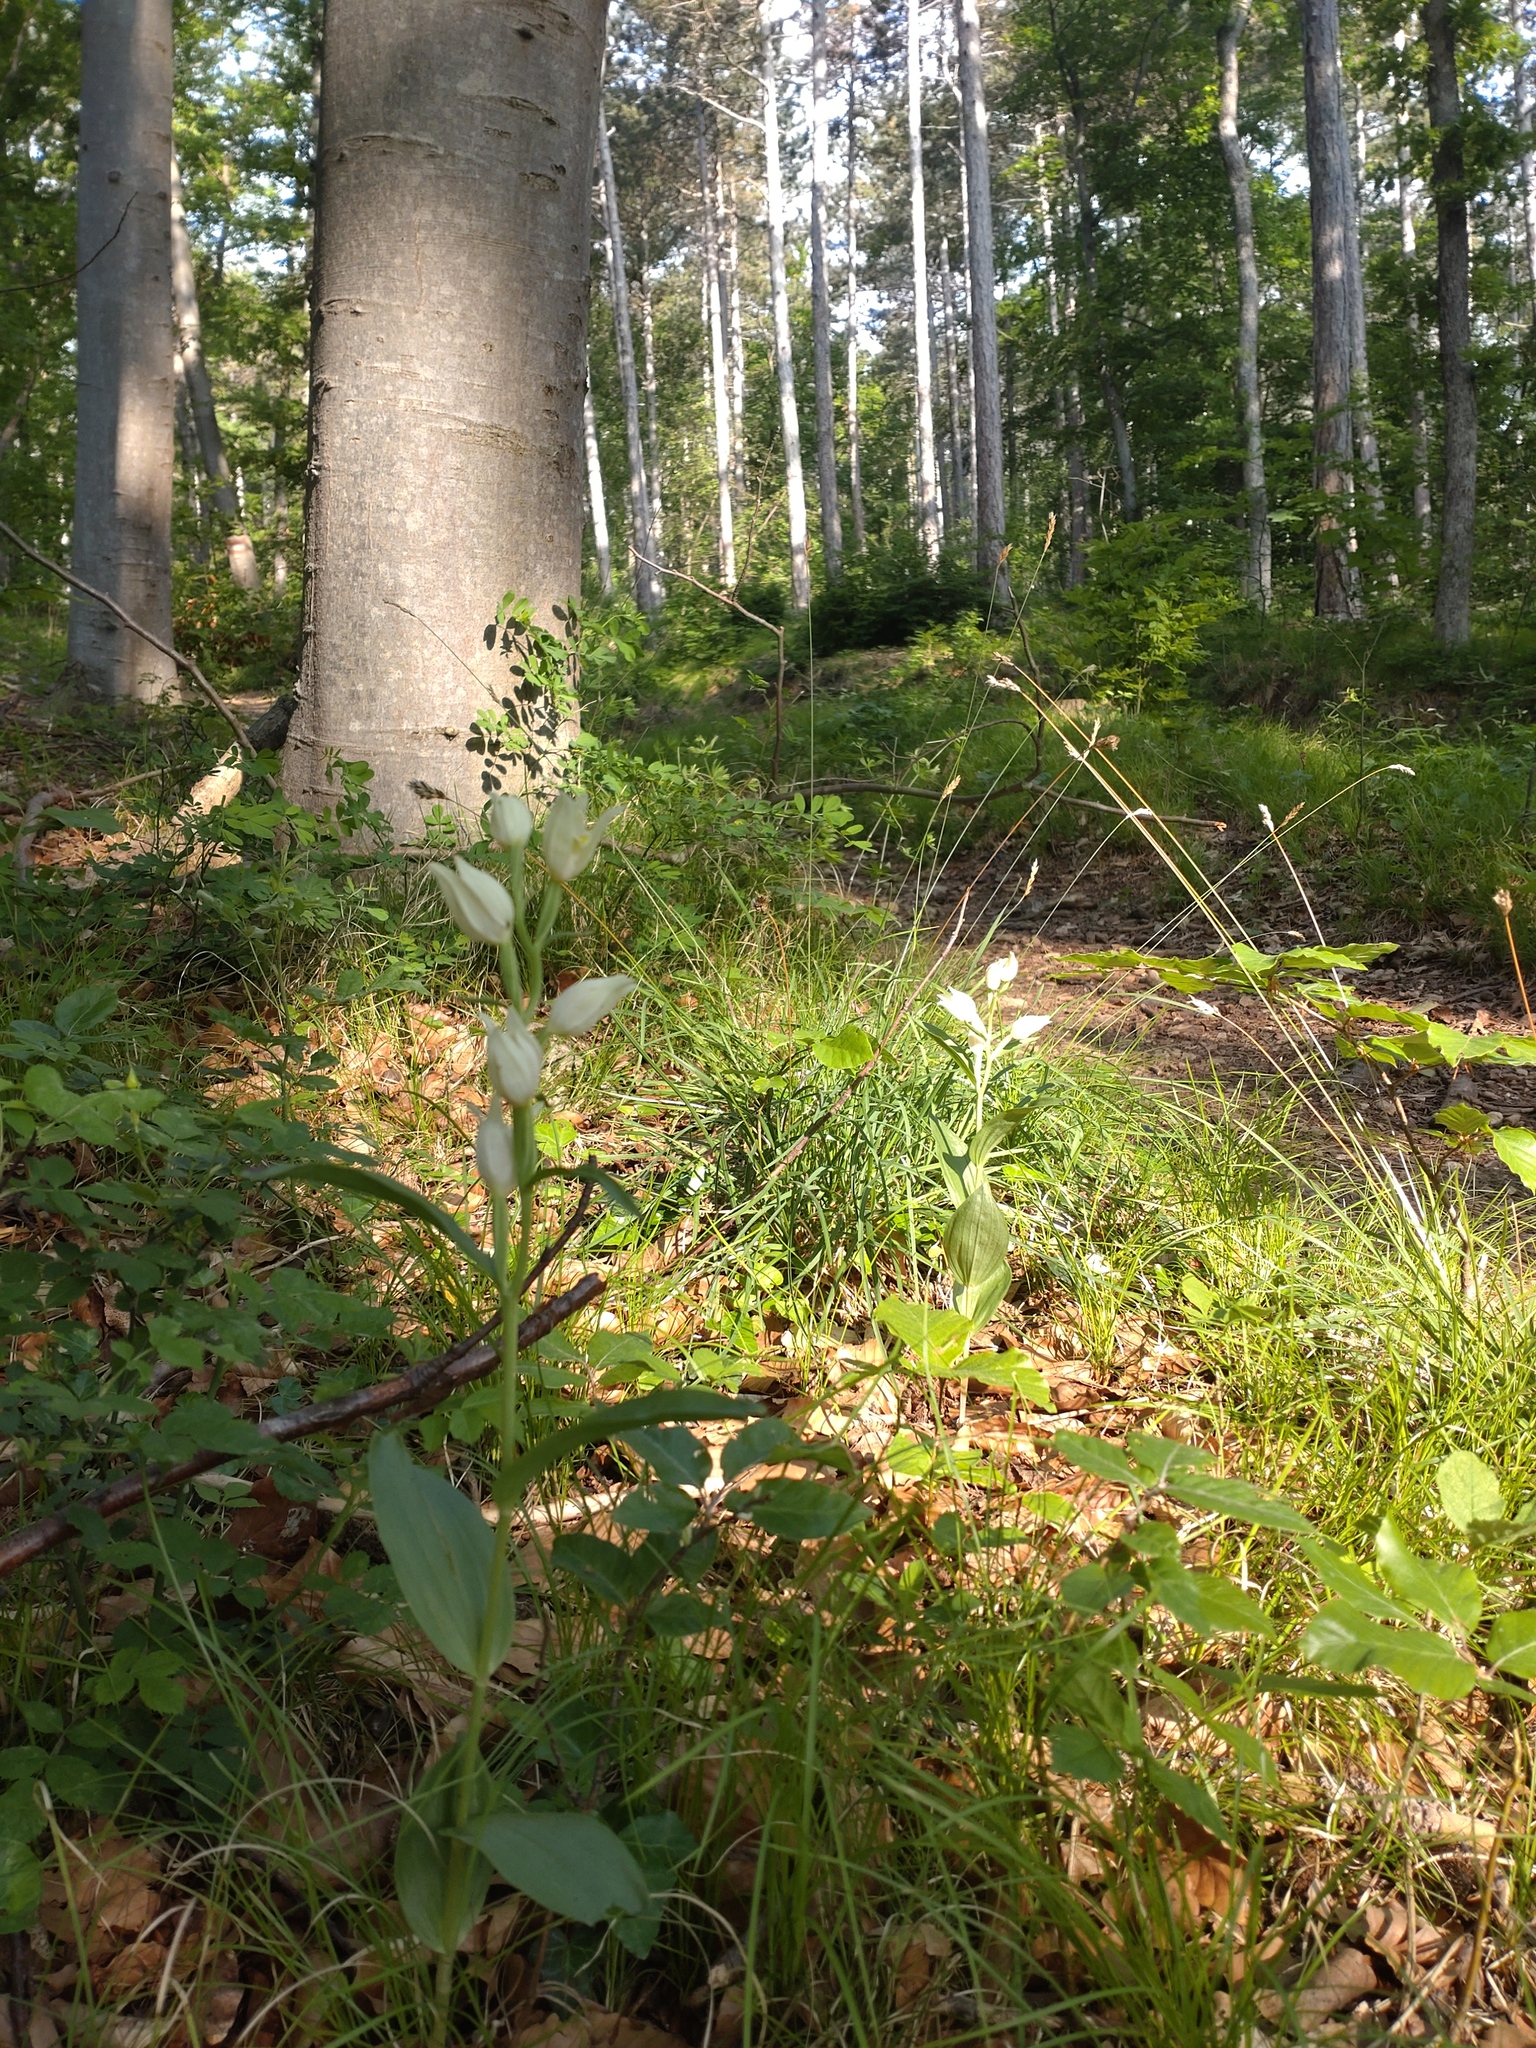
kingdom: Plantae
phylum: Tracheophyta
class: Liliopsida
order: Asparagales
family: Orchidaceae
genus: Cephalanthera
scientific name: Cephalanthera damasonium
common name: White helleborine
